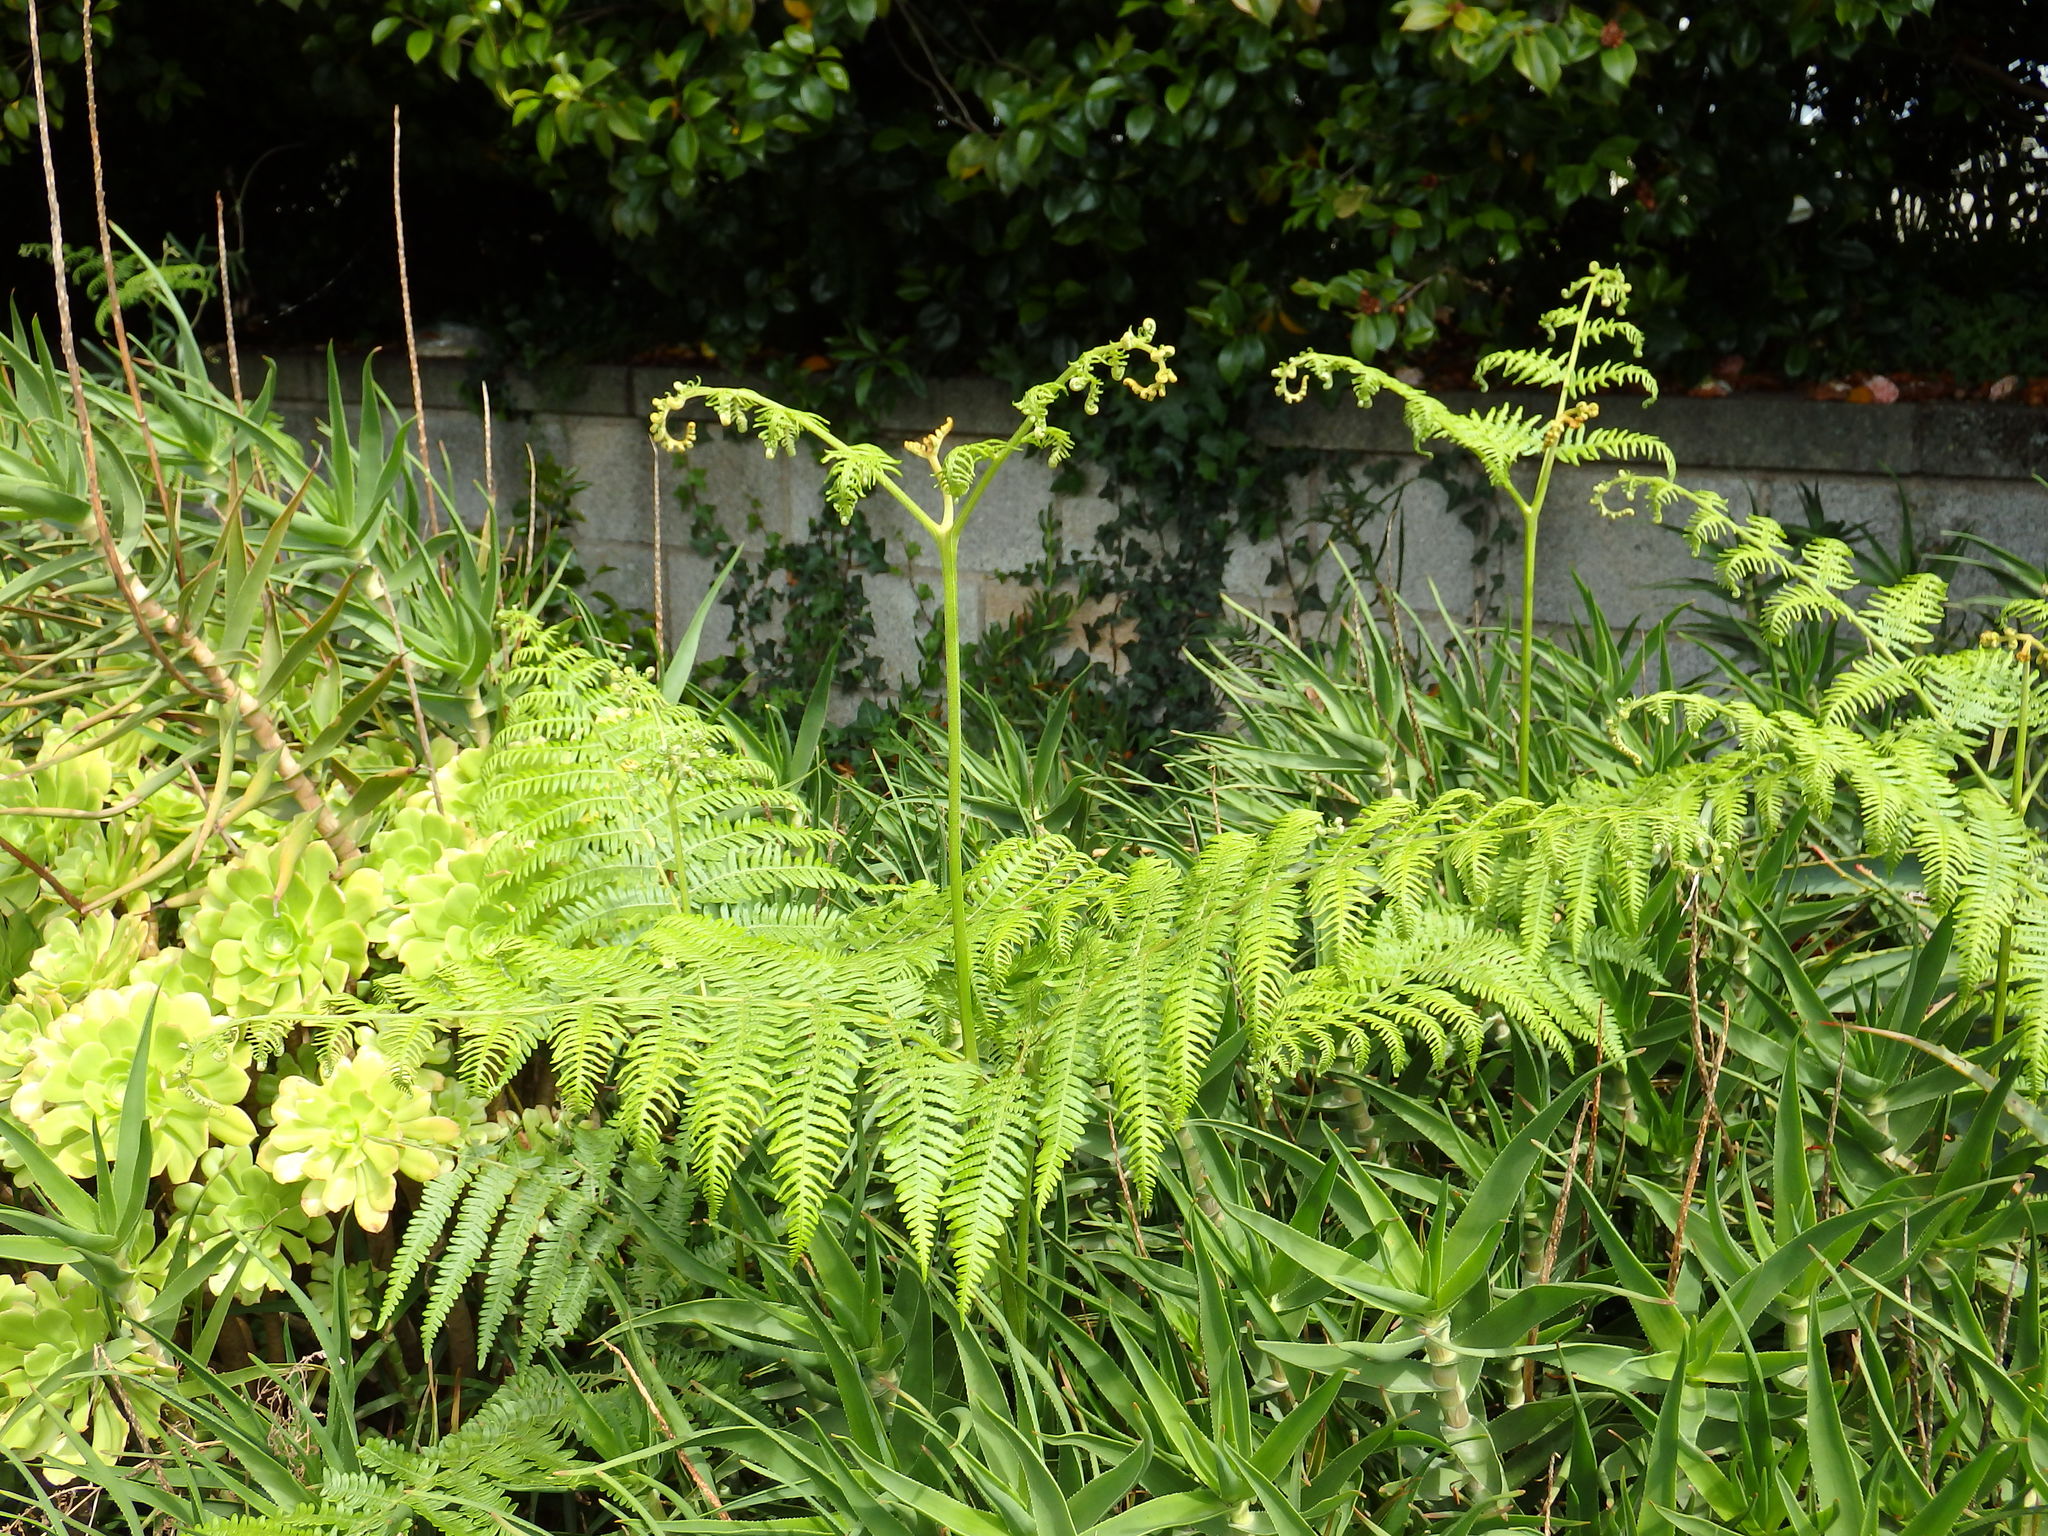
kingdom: Plantae
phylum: Tracheophyta
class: Polypodiopsida
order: Polypodiales
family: Dennstaedtiaceae
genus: Pteridium
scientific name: Pteridium aquilinum
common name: Bracken
